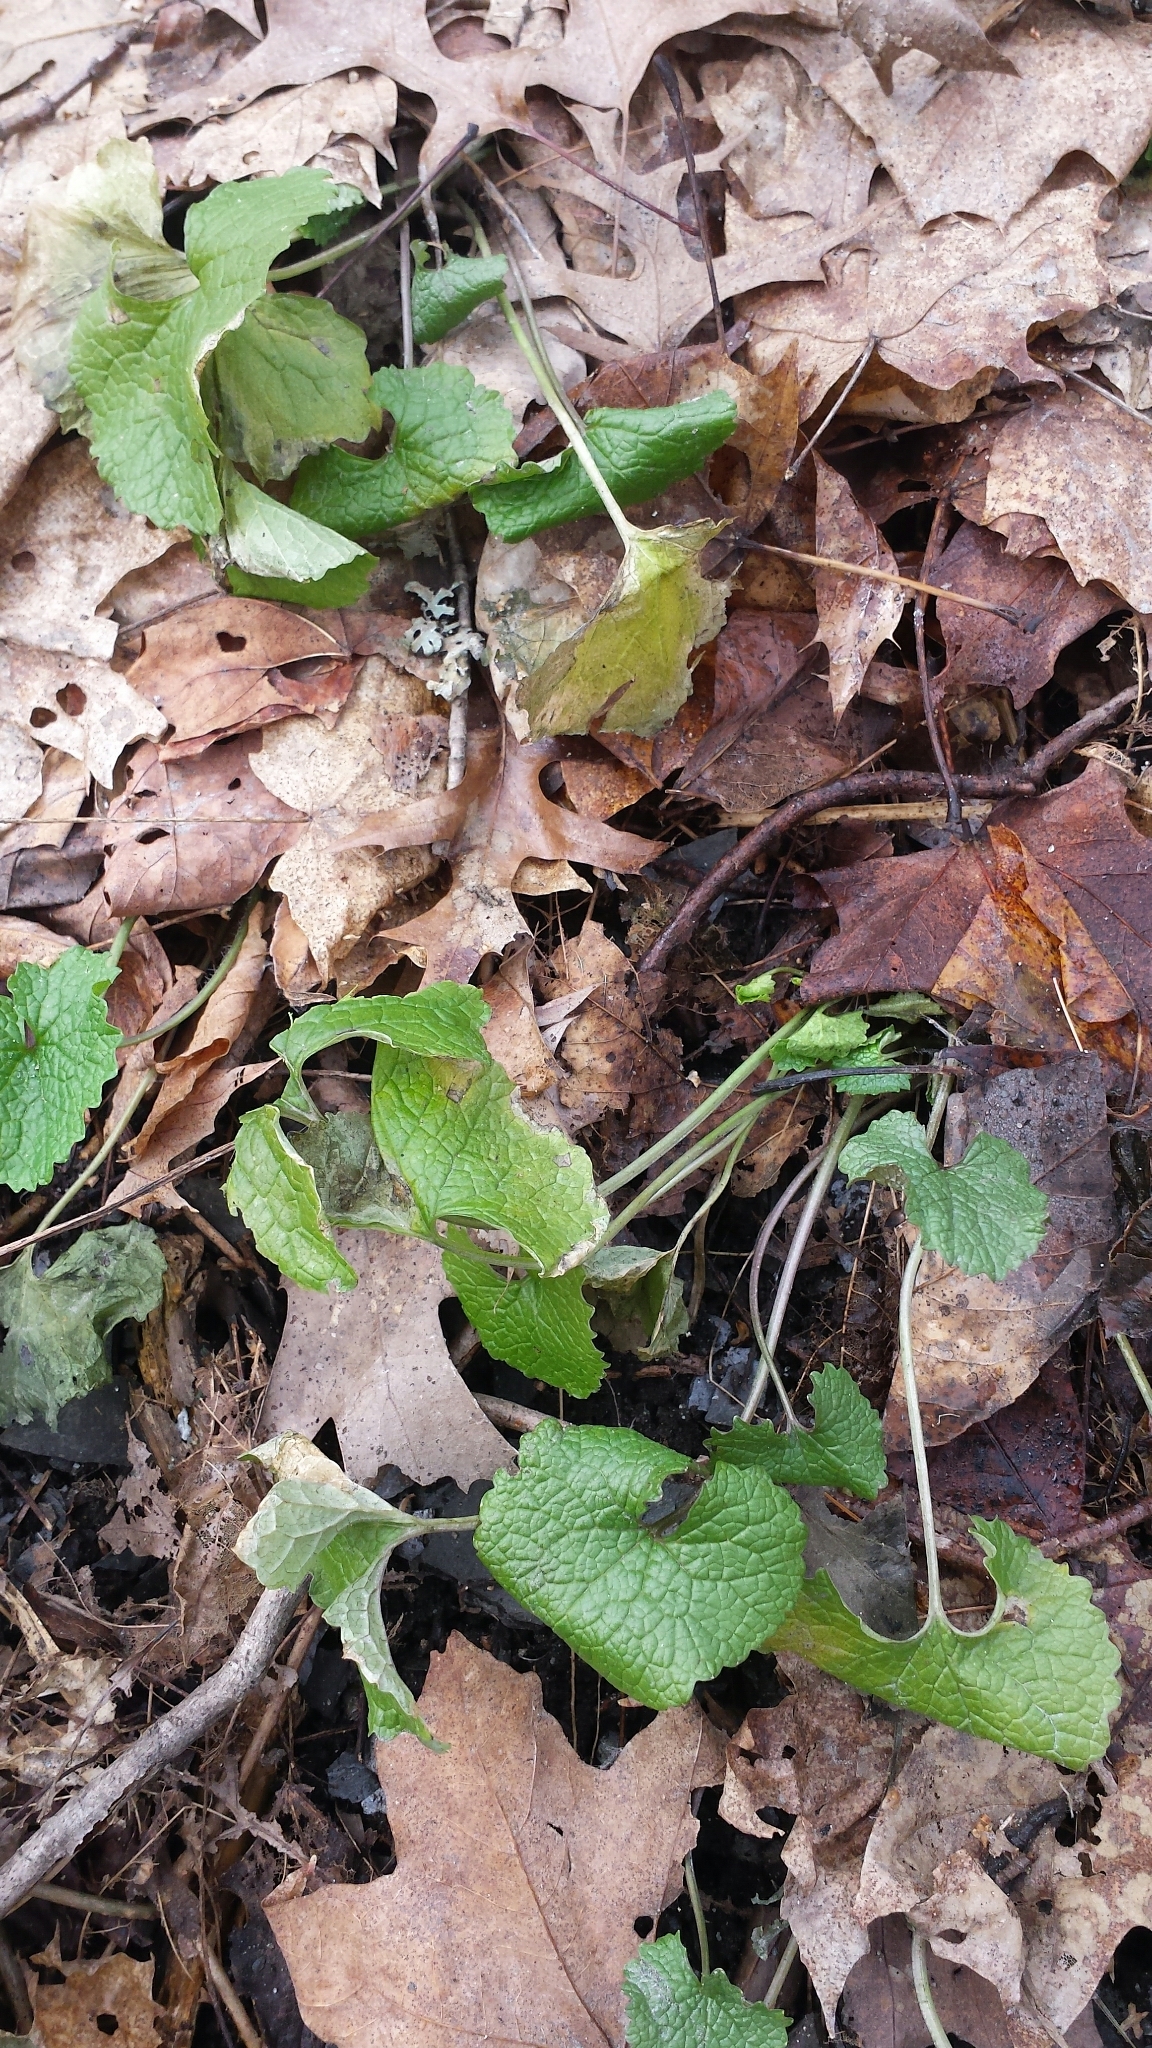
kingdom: Plantae
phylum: Tracheophyta
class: Magnoliopsida
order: Brassicales
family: Brassicaceae
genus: Alliaria
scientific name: Alliaria petiolata
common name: Garlic mustard
